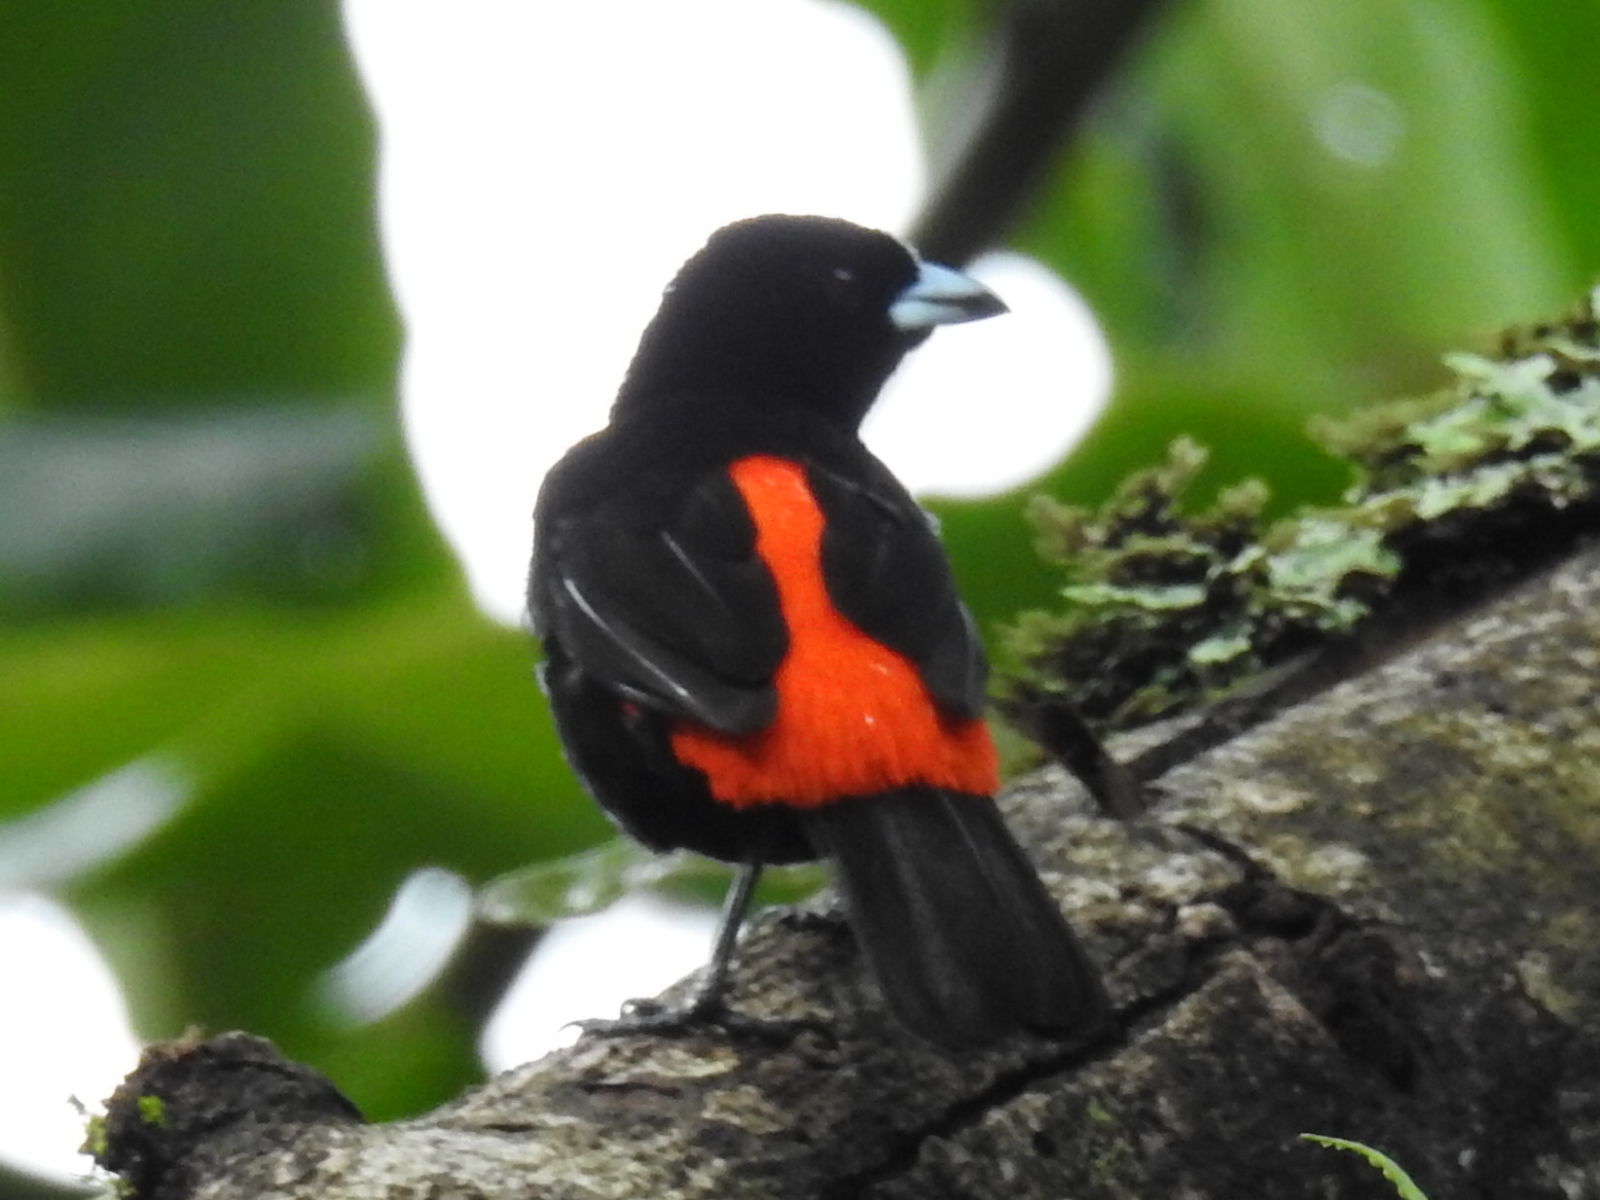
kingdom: Animalia
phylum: Chordata
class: Aves
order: Passeriformes
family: Thraupidae
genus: Ramphocelus
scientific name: Ramphocelus passerinii
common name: Passerini's tanager
